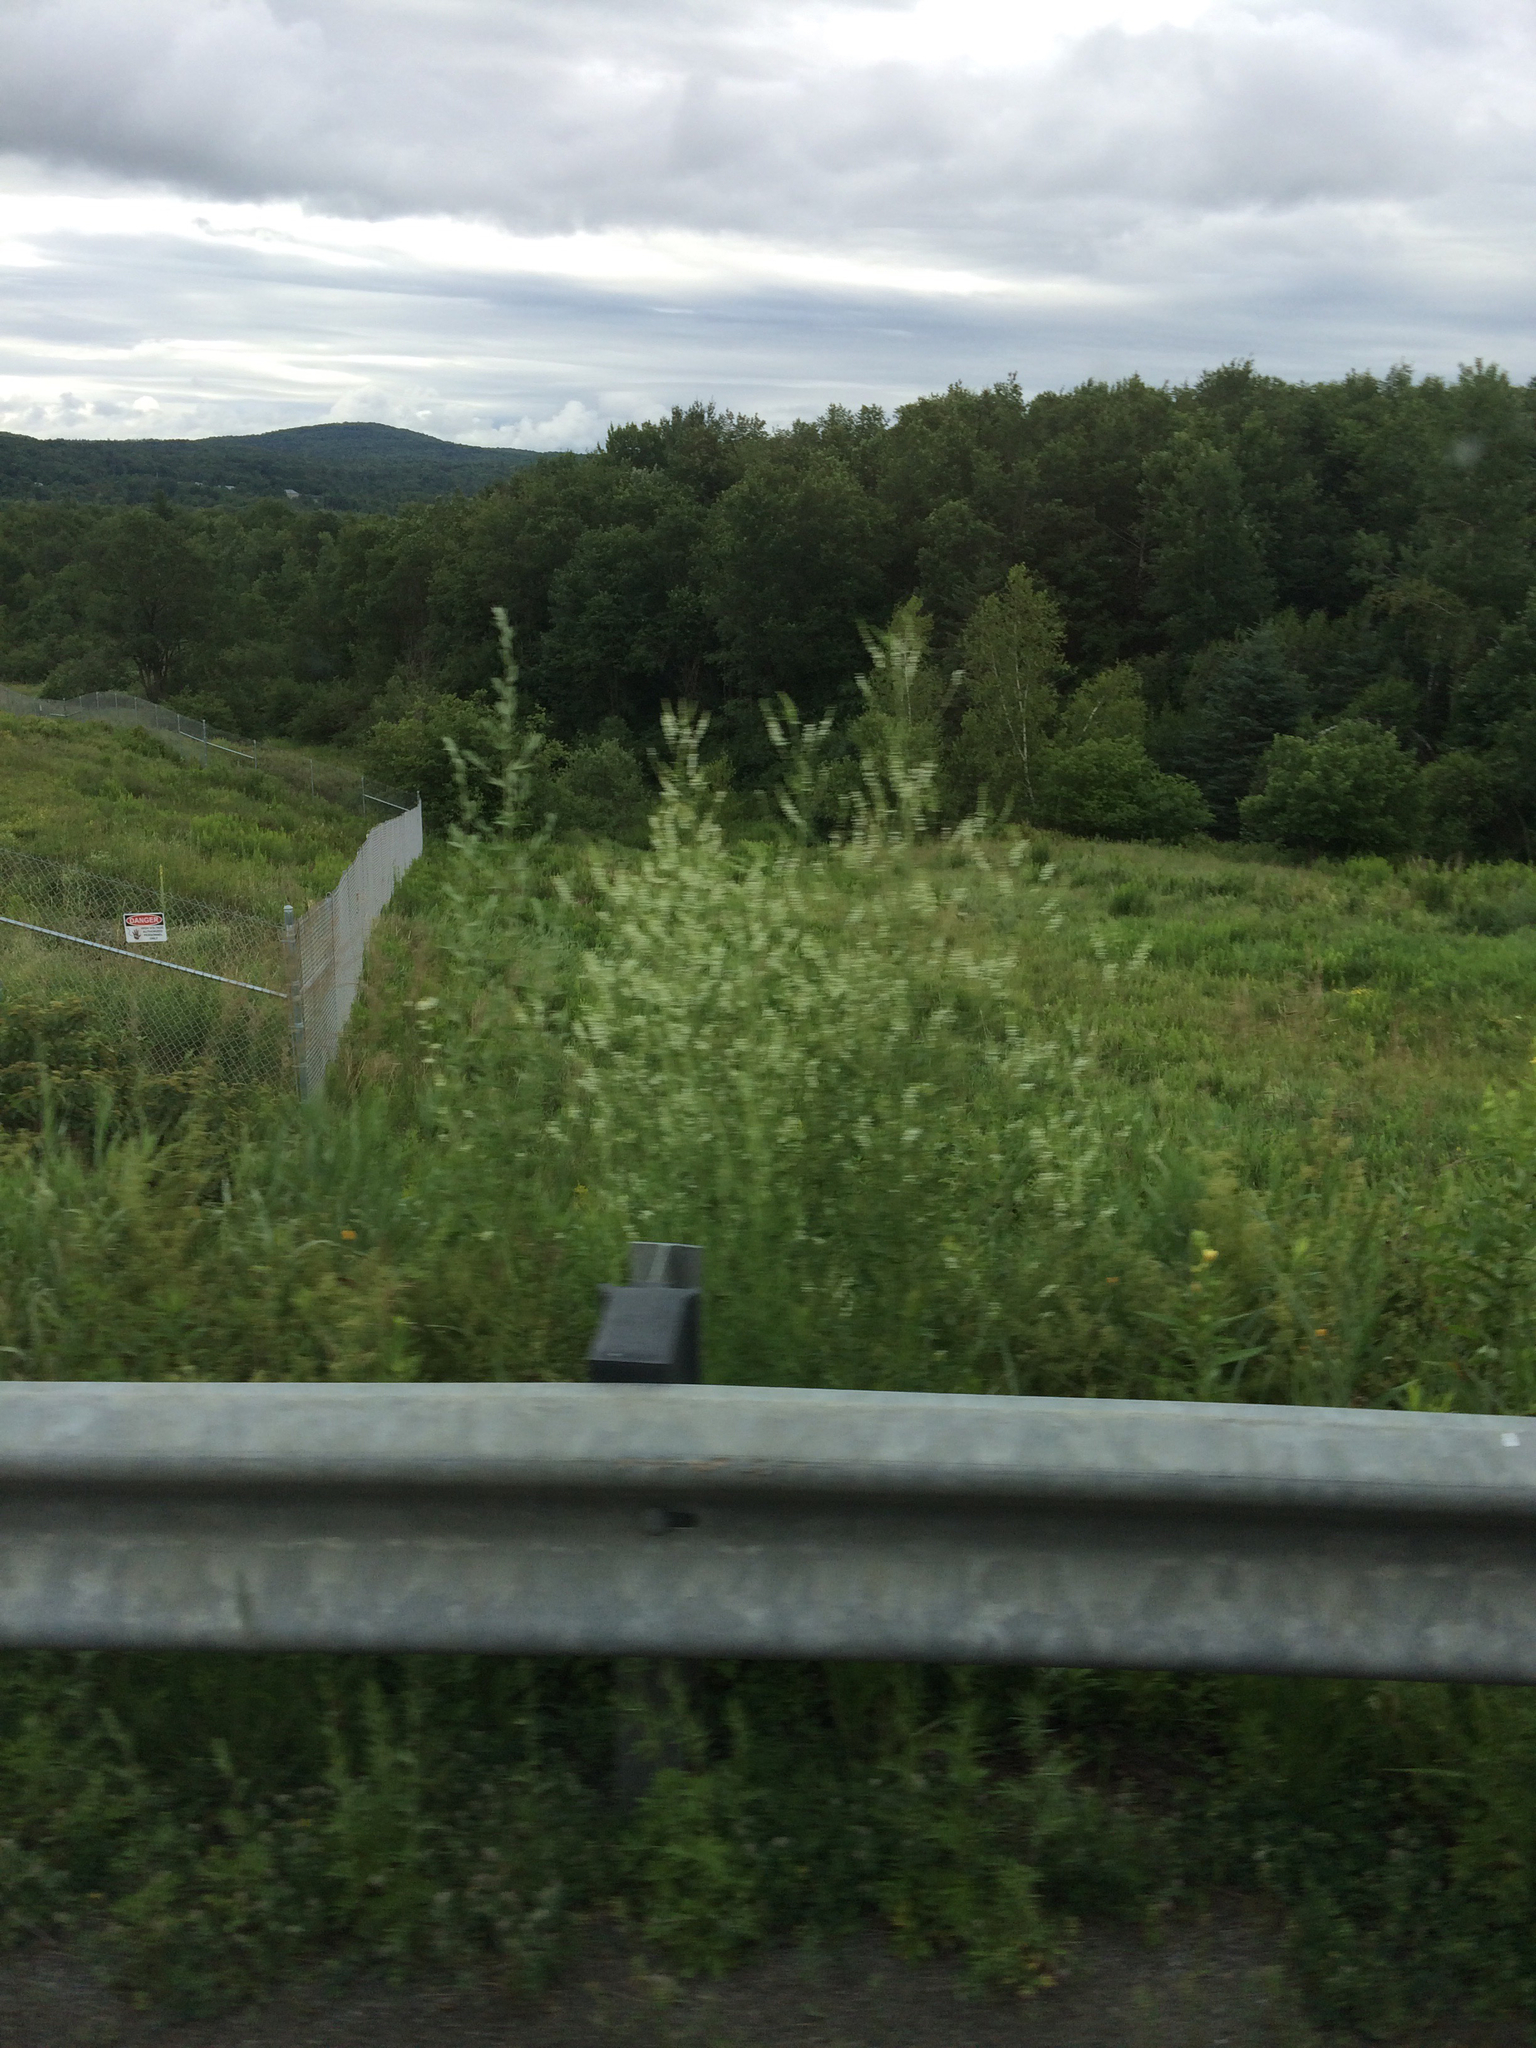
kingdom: Plantae
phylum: Tracheophyta
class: Magnoliopsida
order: Fabales
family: Fabaceae
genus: Melilotus
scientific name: Melilotus albus
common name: White melilot
